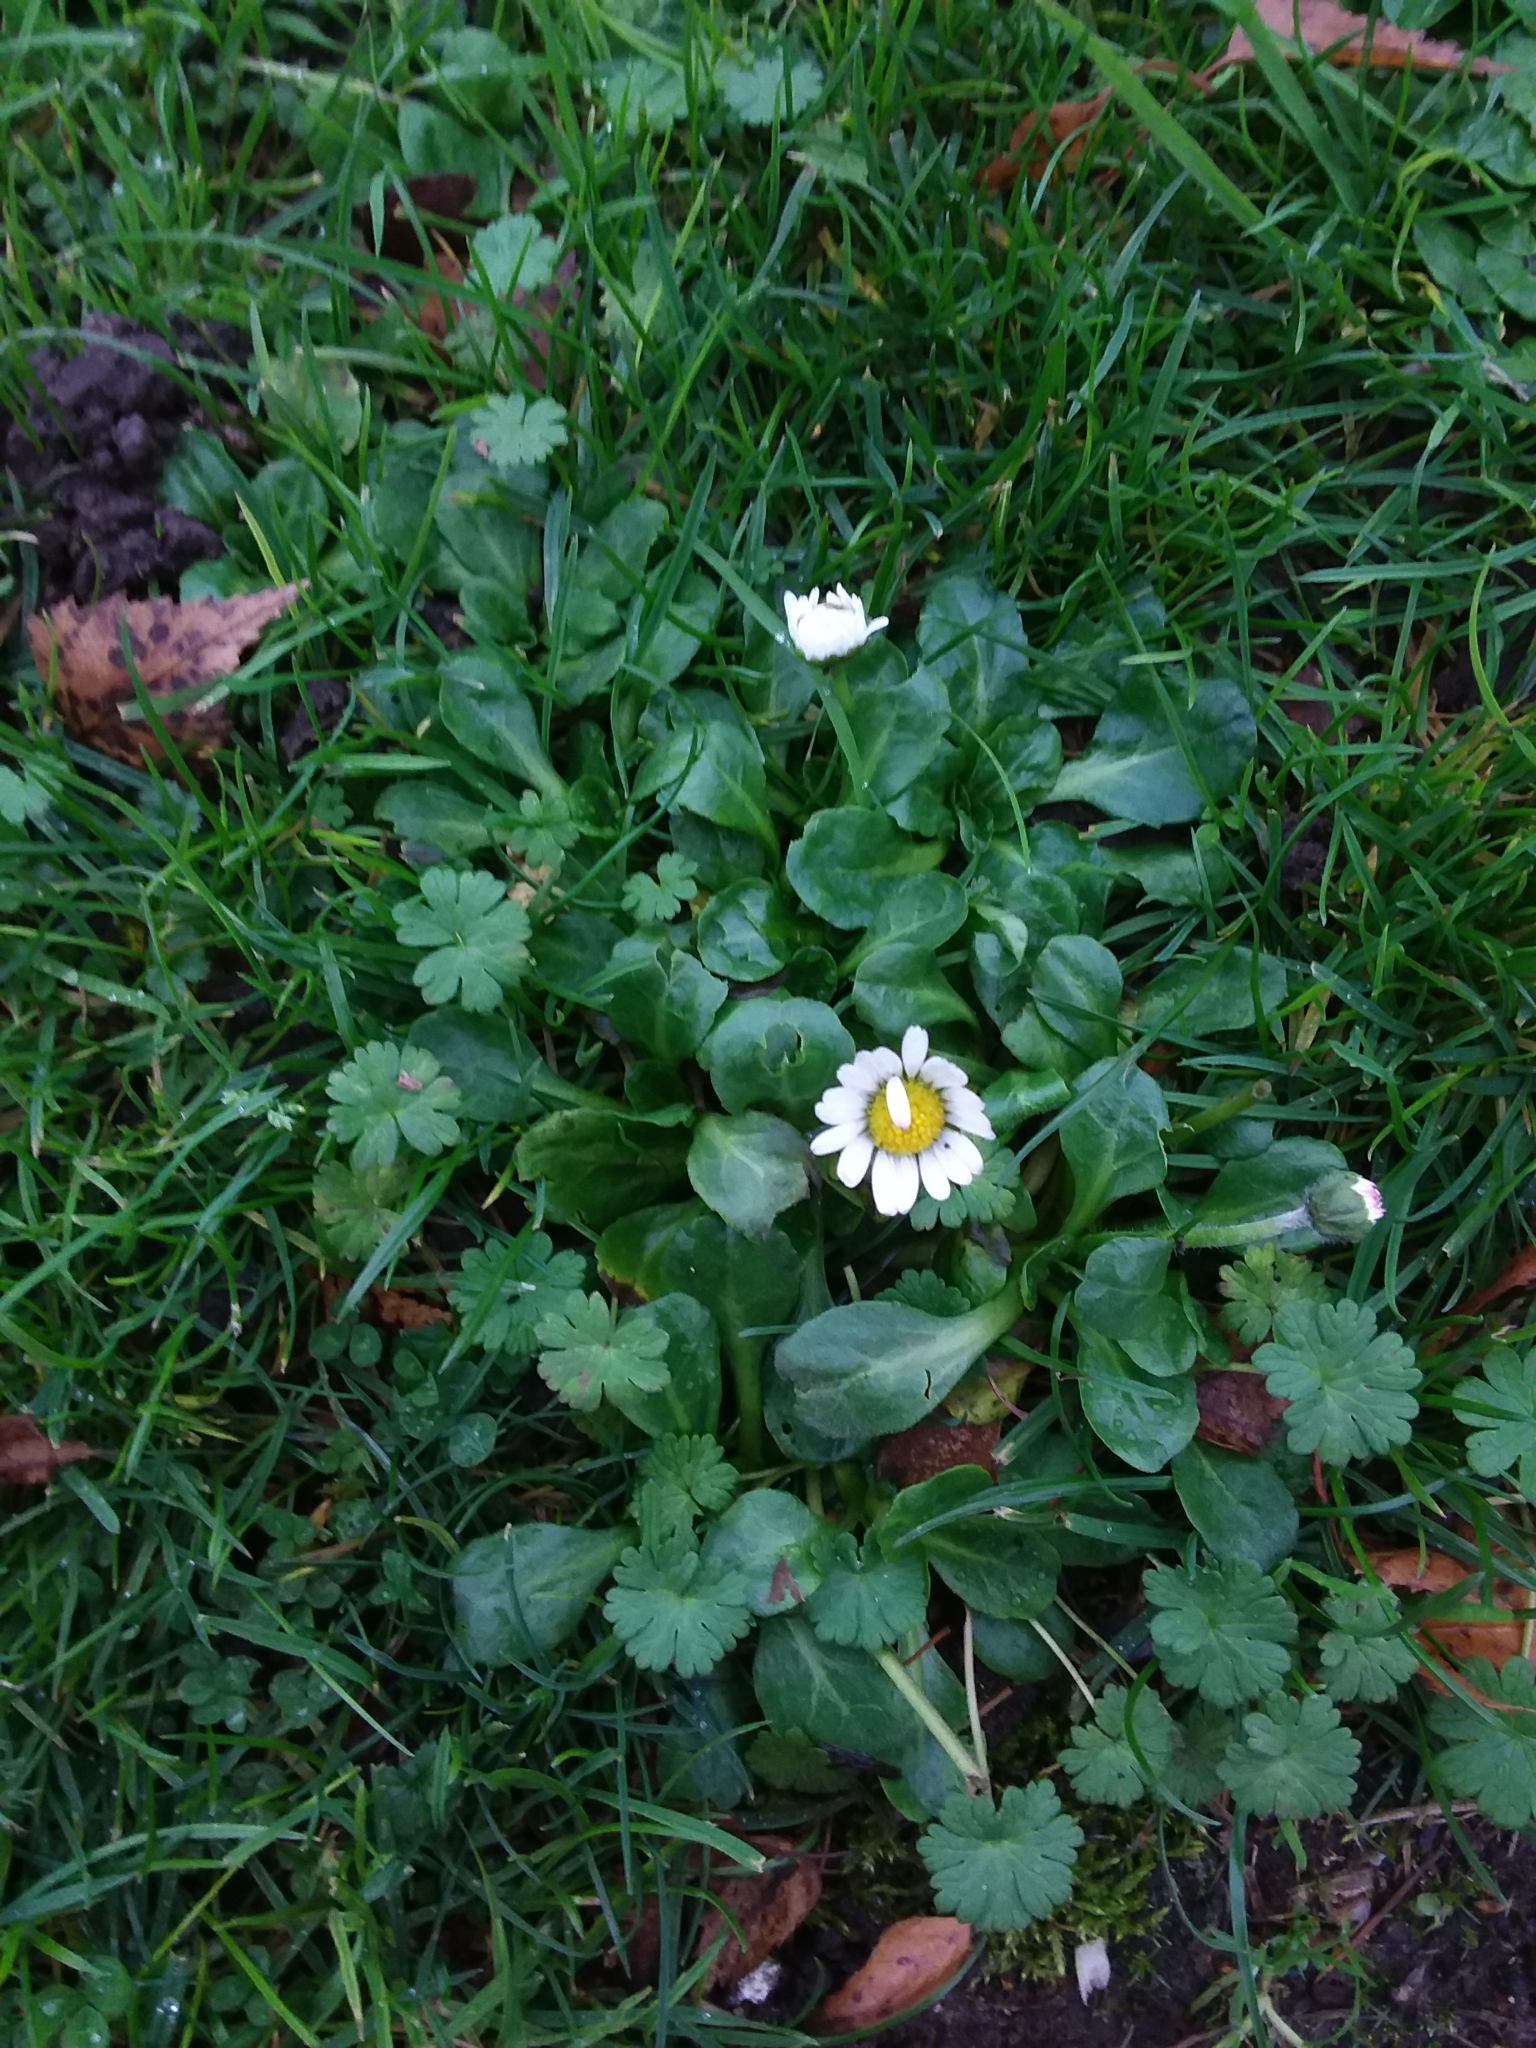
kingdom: Plantae
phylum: Tracheophyta
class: Magnoliopsida
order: Asterales
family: Asteraceae
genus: Bellis
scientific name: Bellis perennis
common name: Lawndaisy
